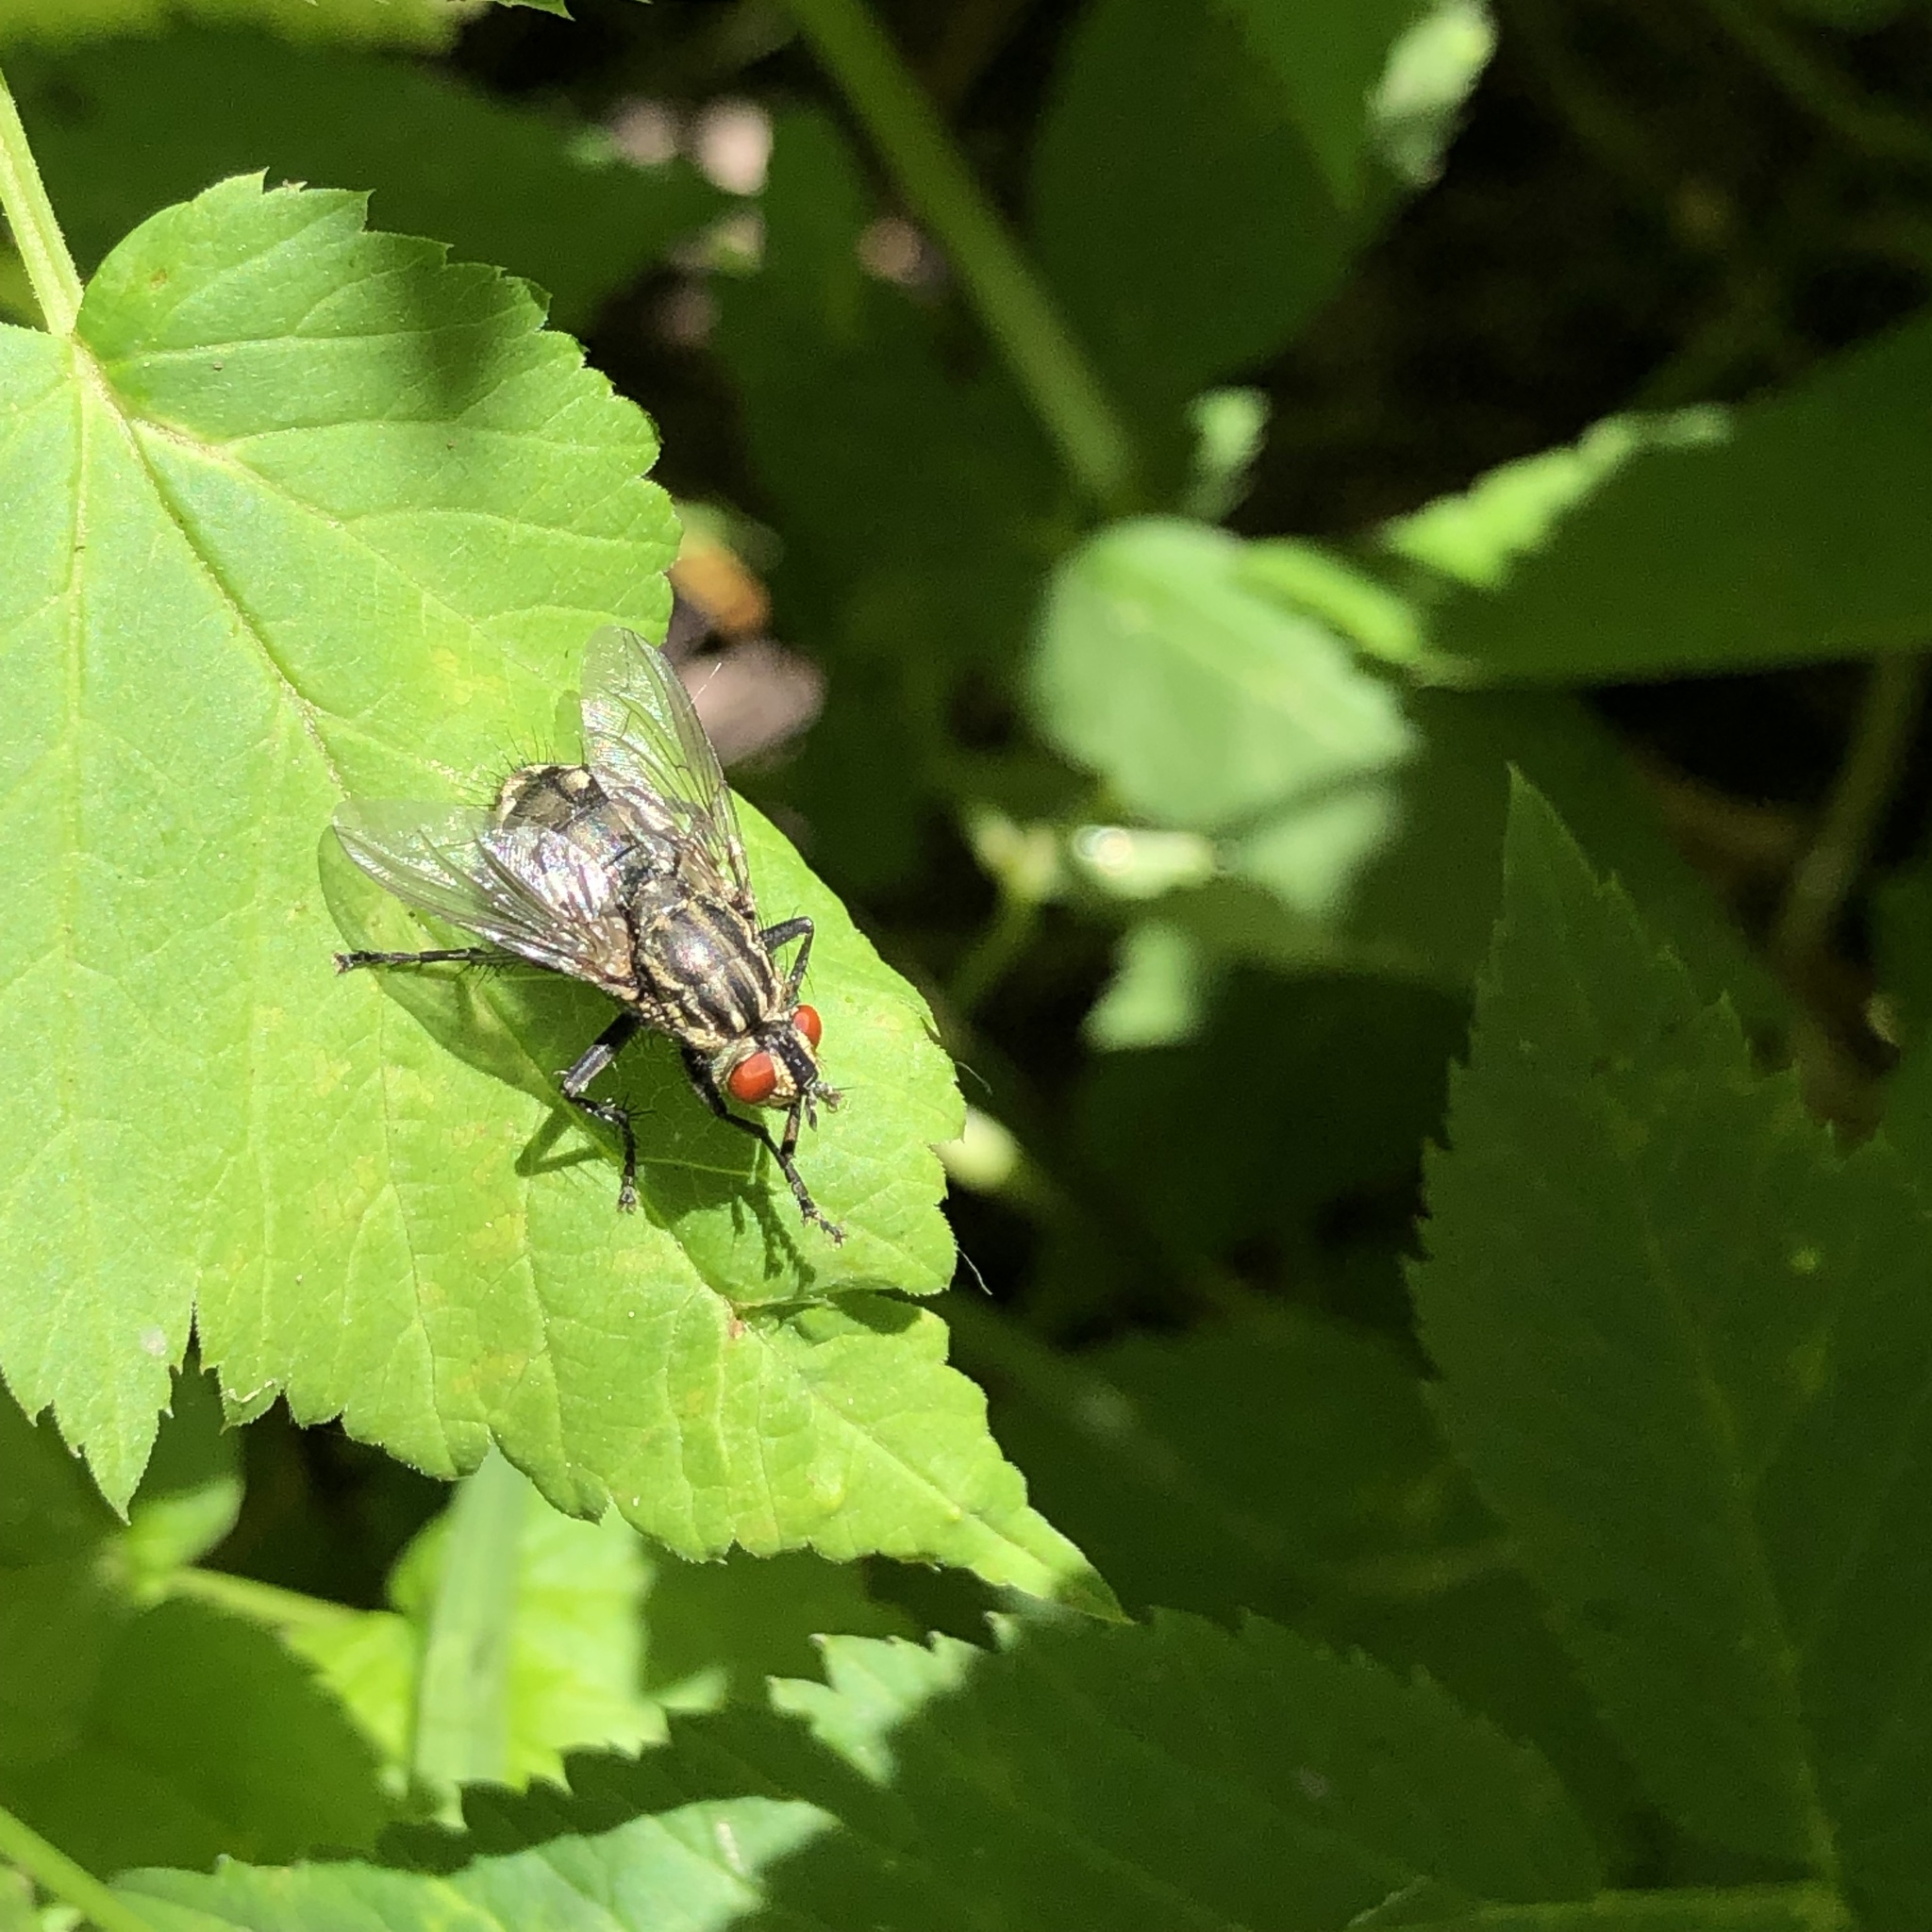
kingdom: Animalia
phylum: Arthropoda
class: Insecta
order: Diptera
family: Sarcophagidae
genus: Sarcophaga
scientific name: Sarcophaga
